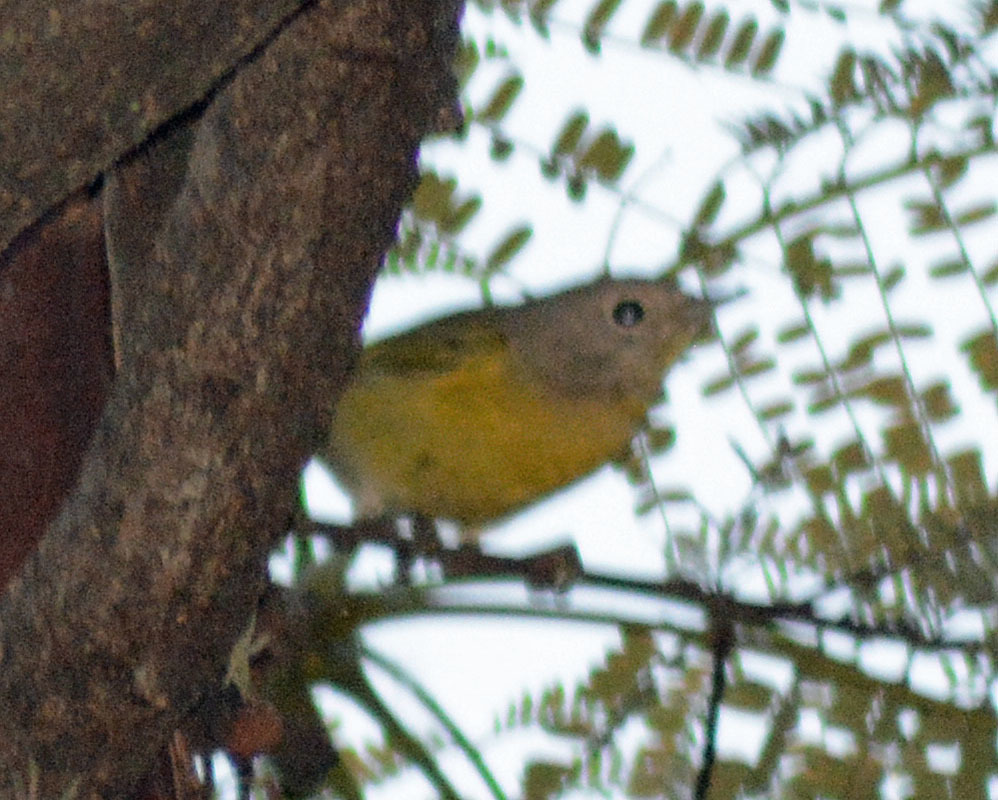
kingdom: Animalia
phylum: Chordata
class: Aves
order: Passeriformes
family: Parulidae
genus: Leiothlypis
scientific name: Leiothlypis ruficapilla
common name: Nashville warbler
